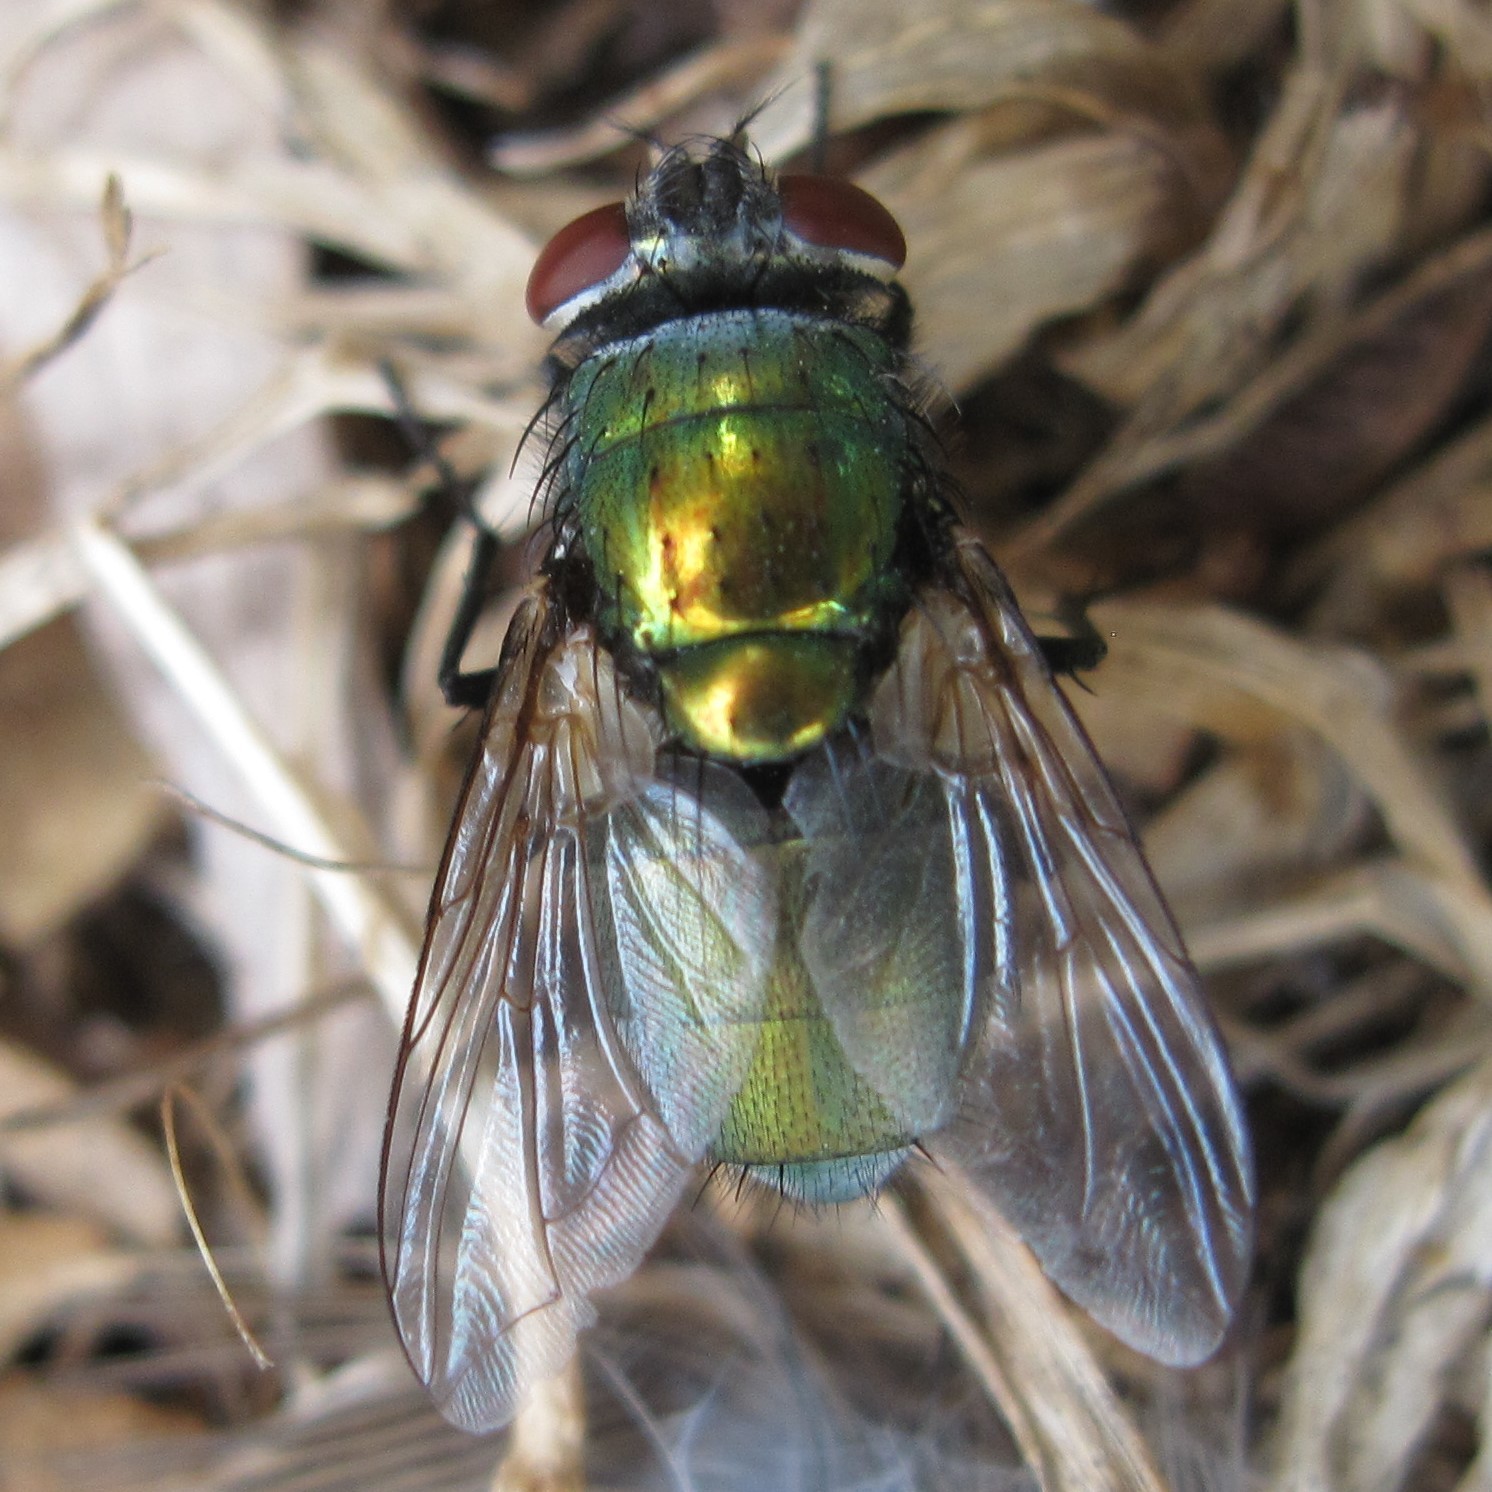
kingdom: Animalia
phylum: Arthropoda
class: Insecta
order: Diptera
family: Calliphoridae
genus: Lucilia
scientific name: Lucilia sericata
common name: Blow fly
